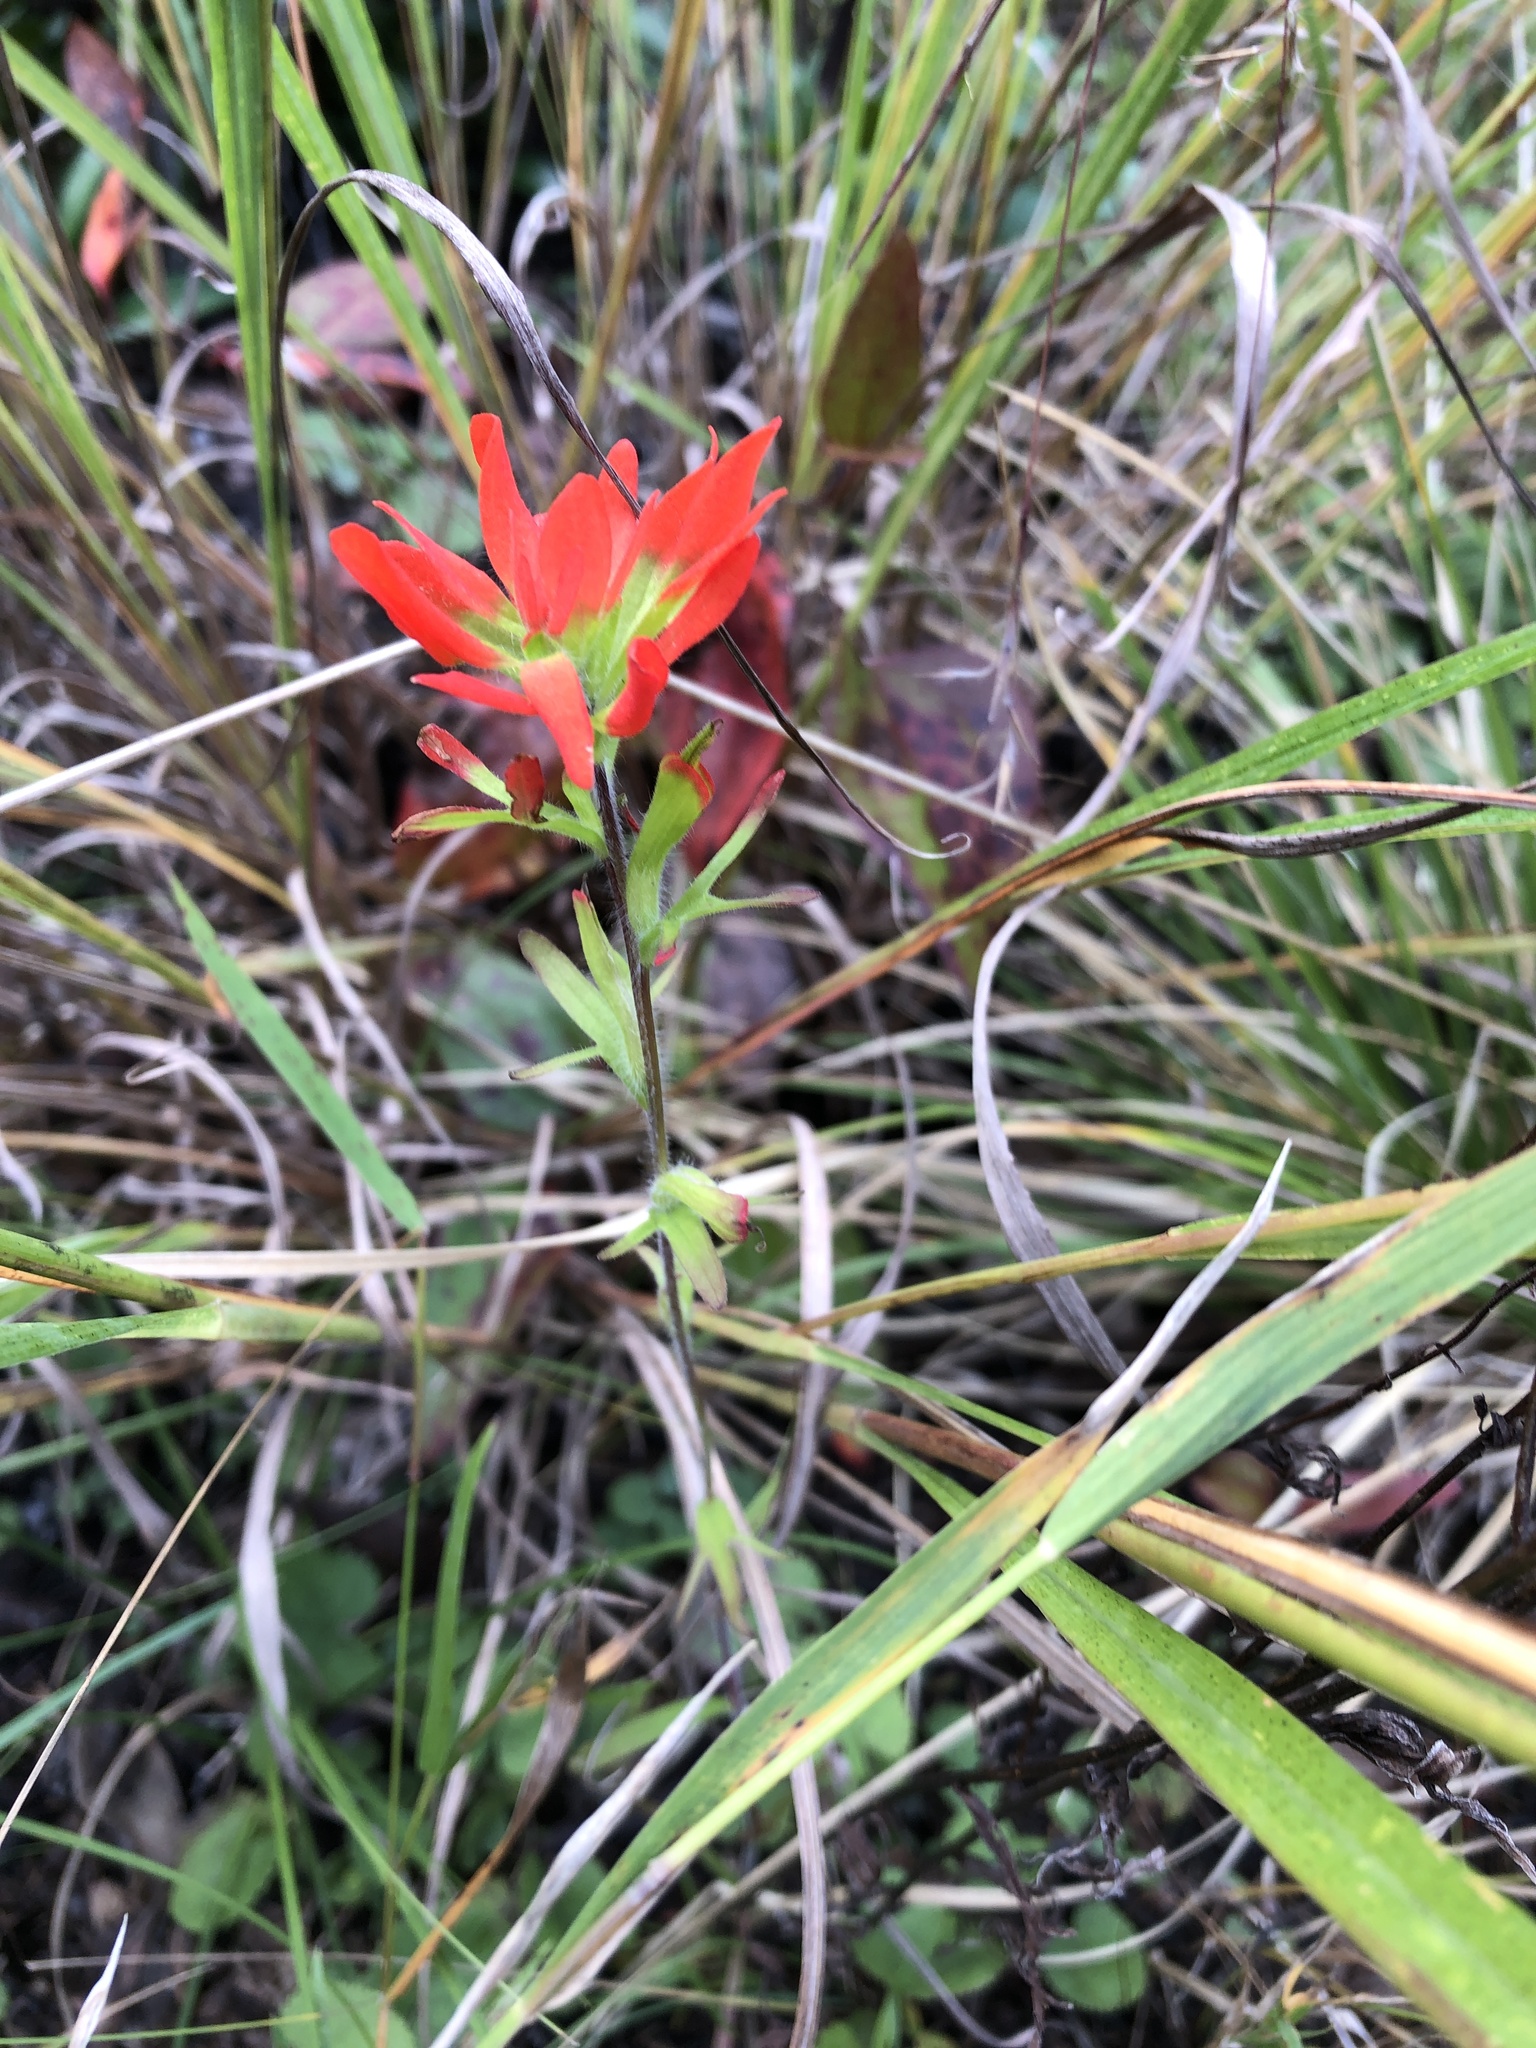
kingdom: Plantae
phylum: Tracheophyta
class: Magnoliopsida
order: Lamiales
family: Orobanchaceae
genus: Castilleja
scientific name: Castilleja coccinea
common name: Scarlet paintbrush
